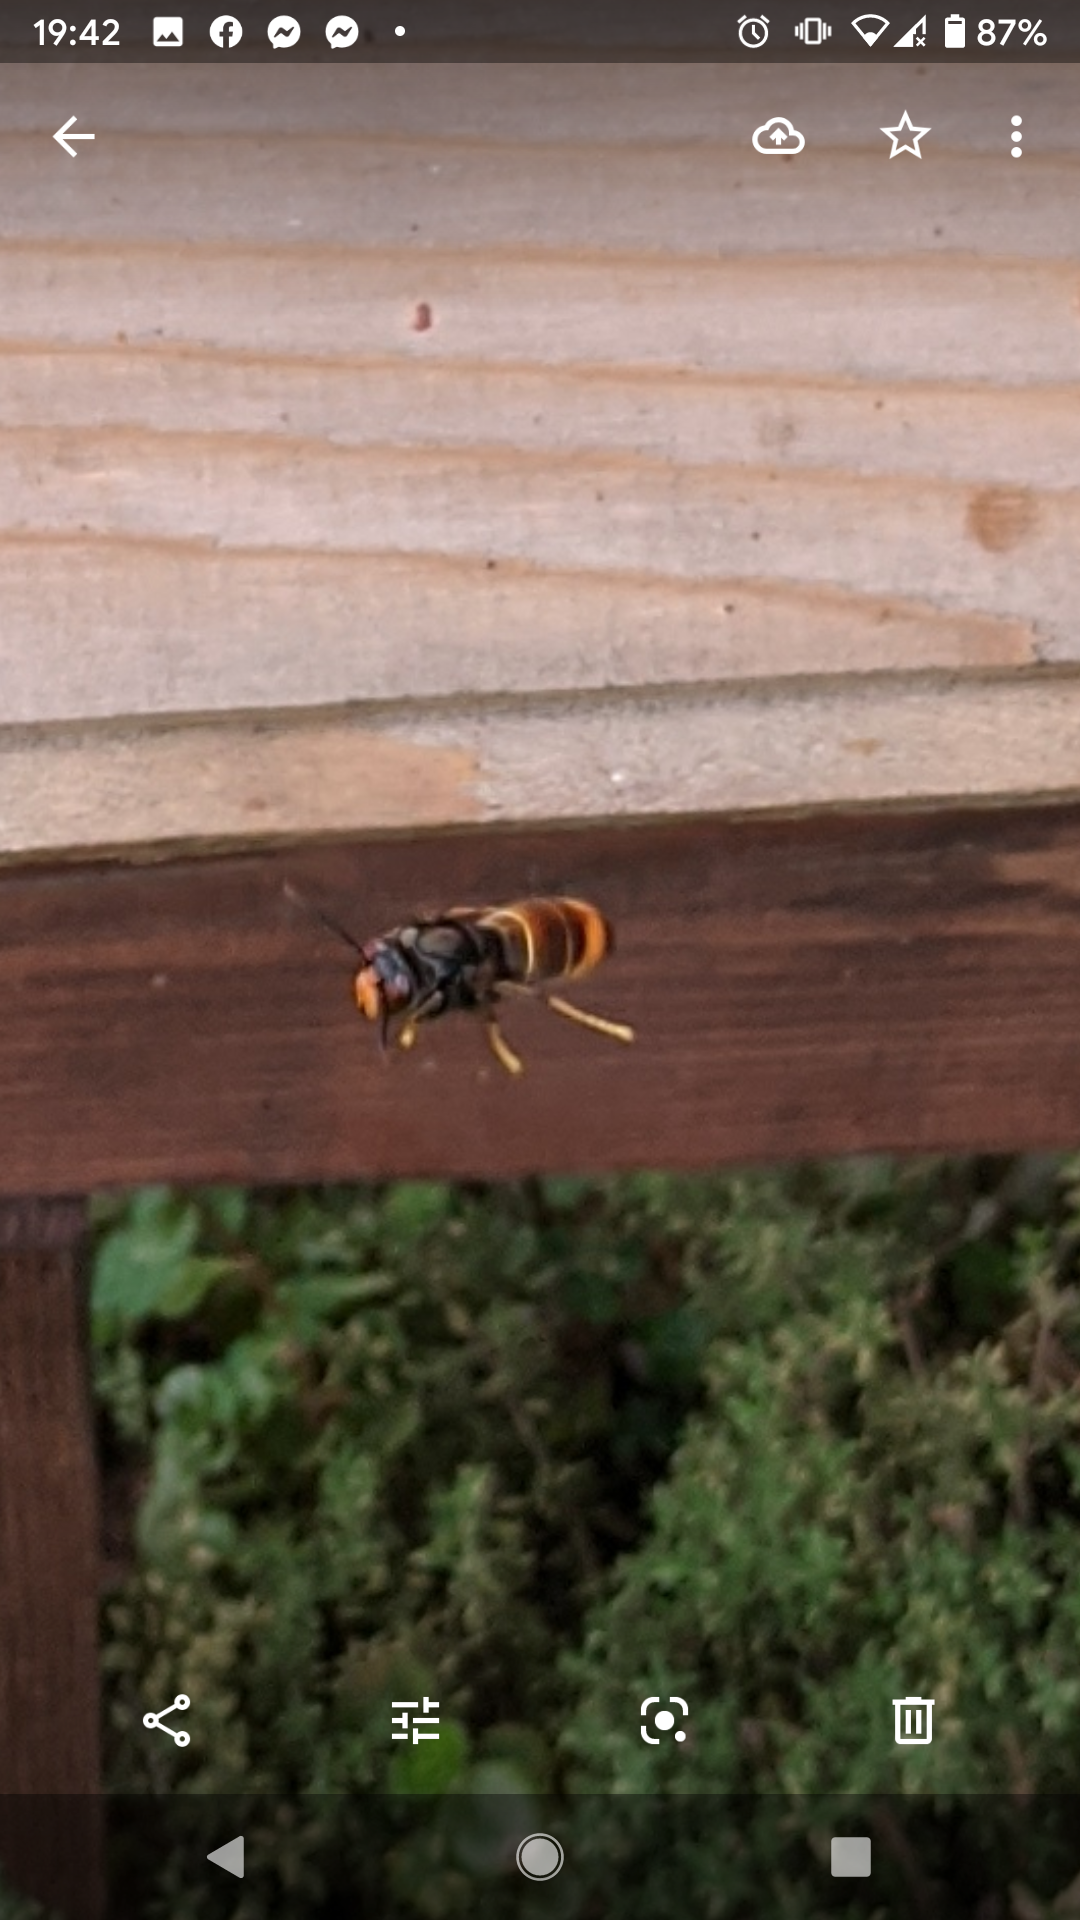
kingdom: Animalia
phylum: Arthropoda
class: Insecta
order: Hymenoptera
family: Vespidae
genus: Vespa
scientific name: Vespa velutina
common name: Asian hornet
